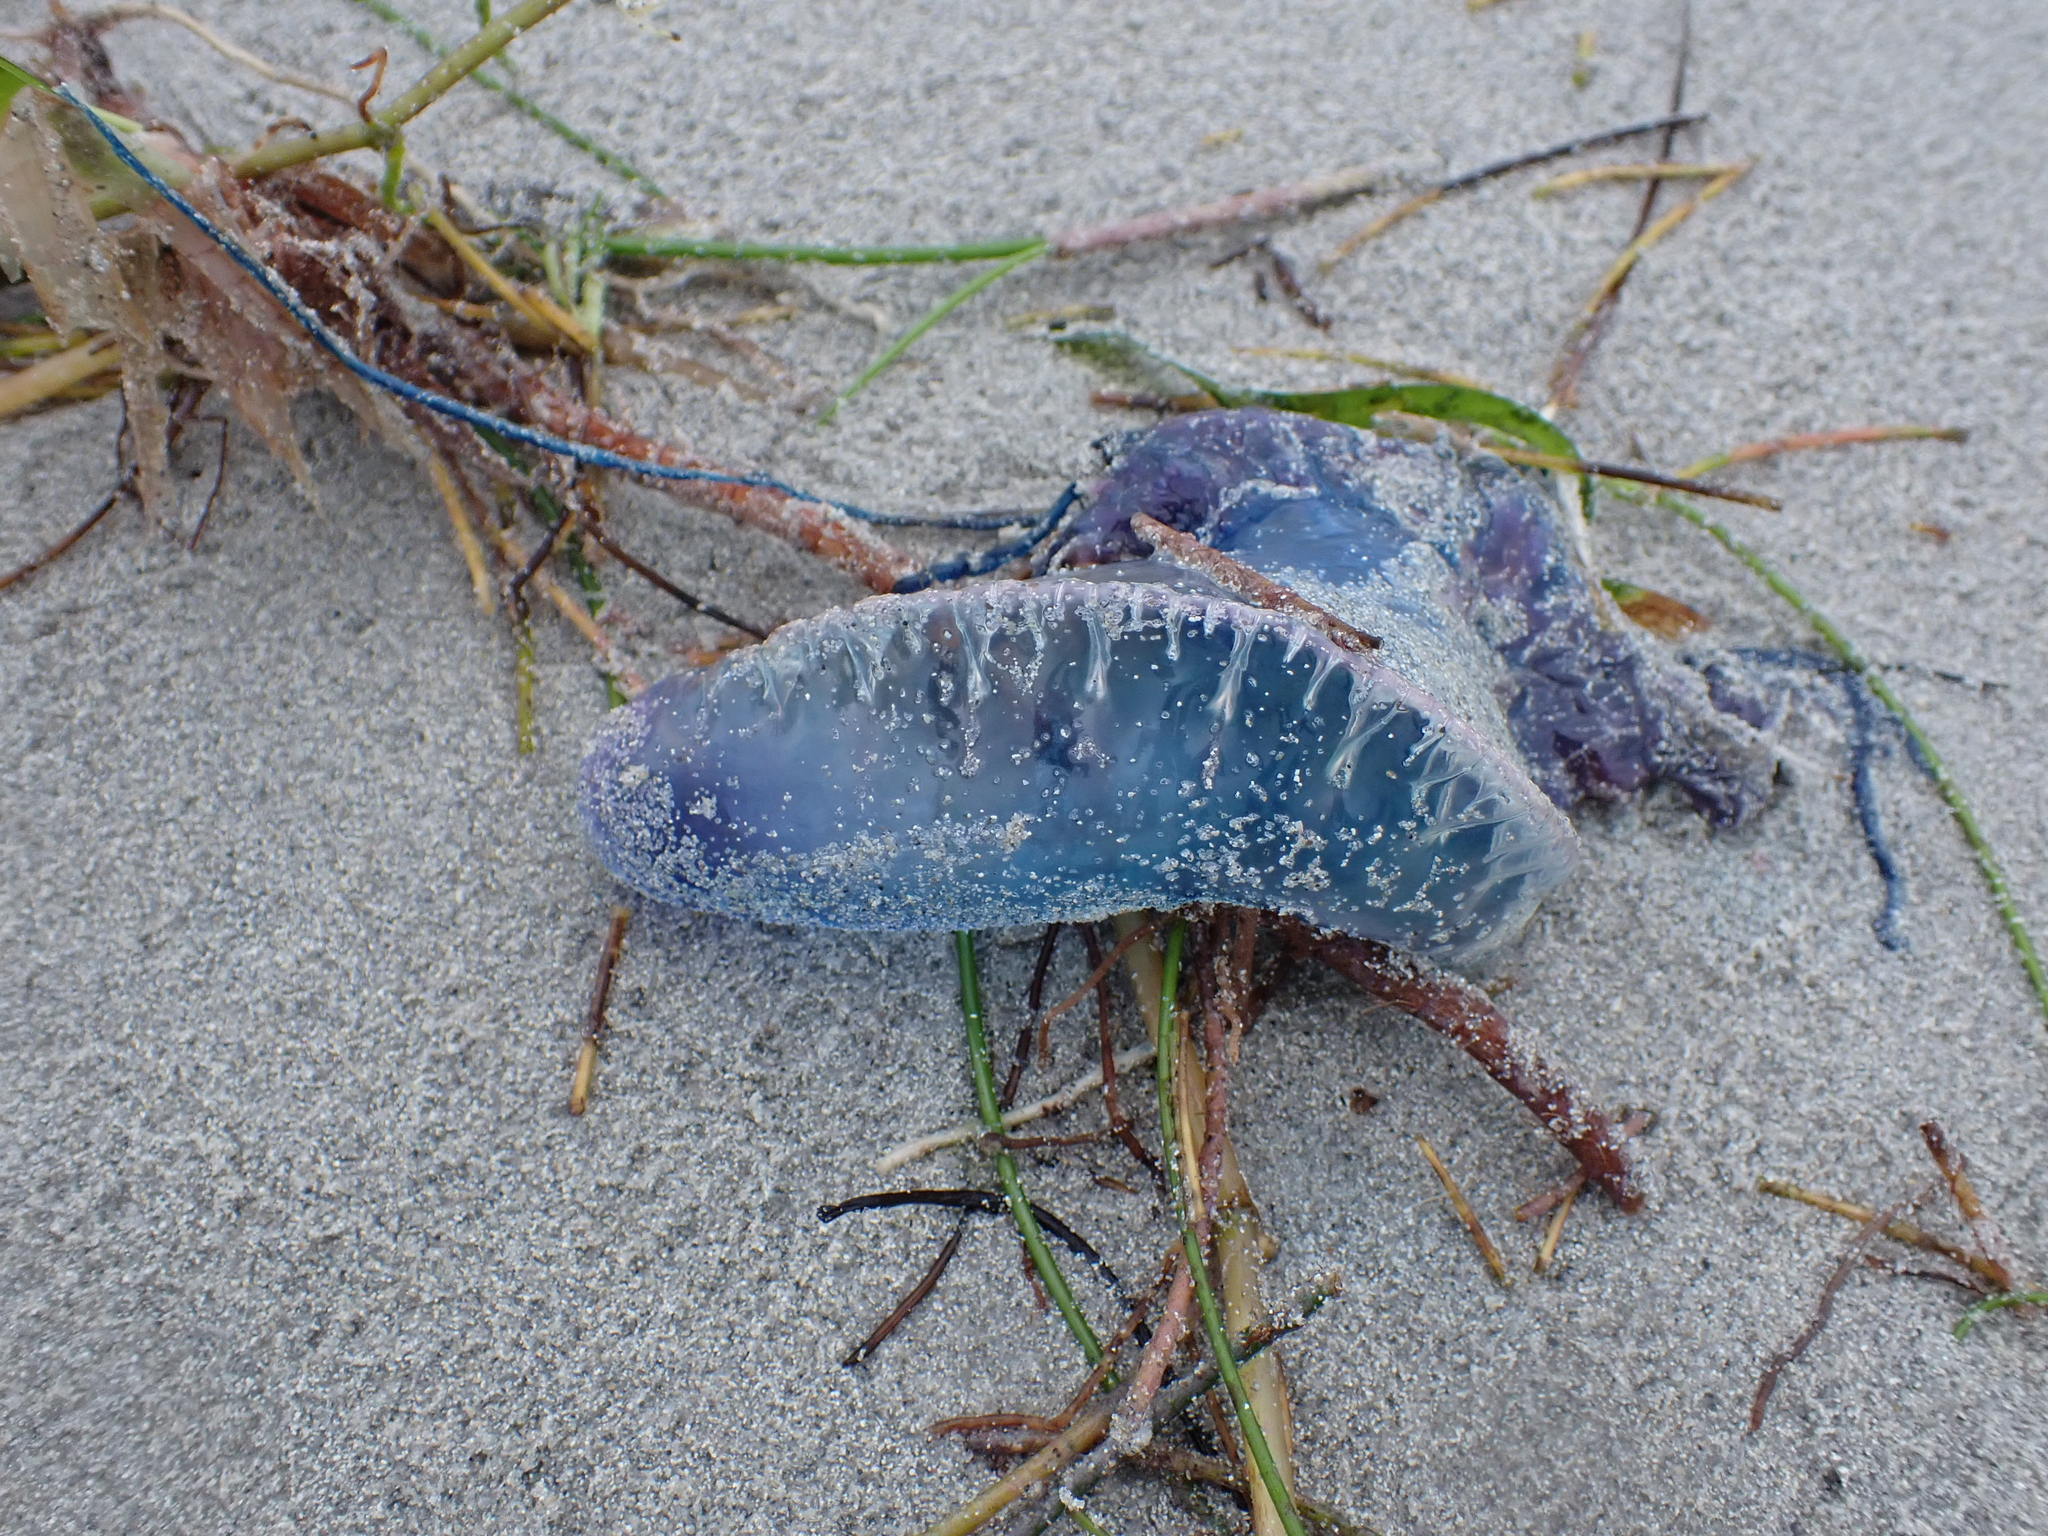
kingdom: Animalia
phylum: Cnidaria
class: Hydrozoa
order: Siphonophorae
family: Physaliidae
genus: Physalia
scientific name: Physalia physalis
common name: Portuguese man-of-war
